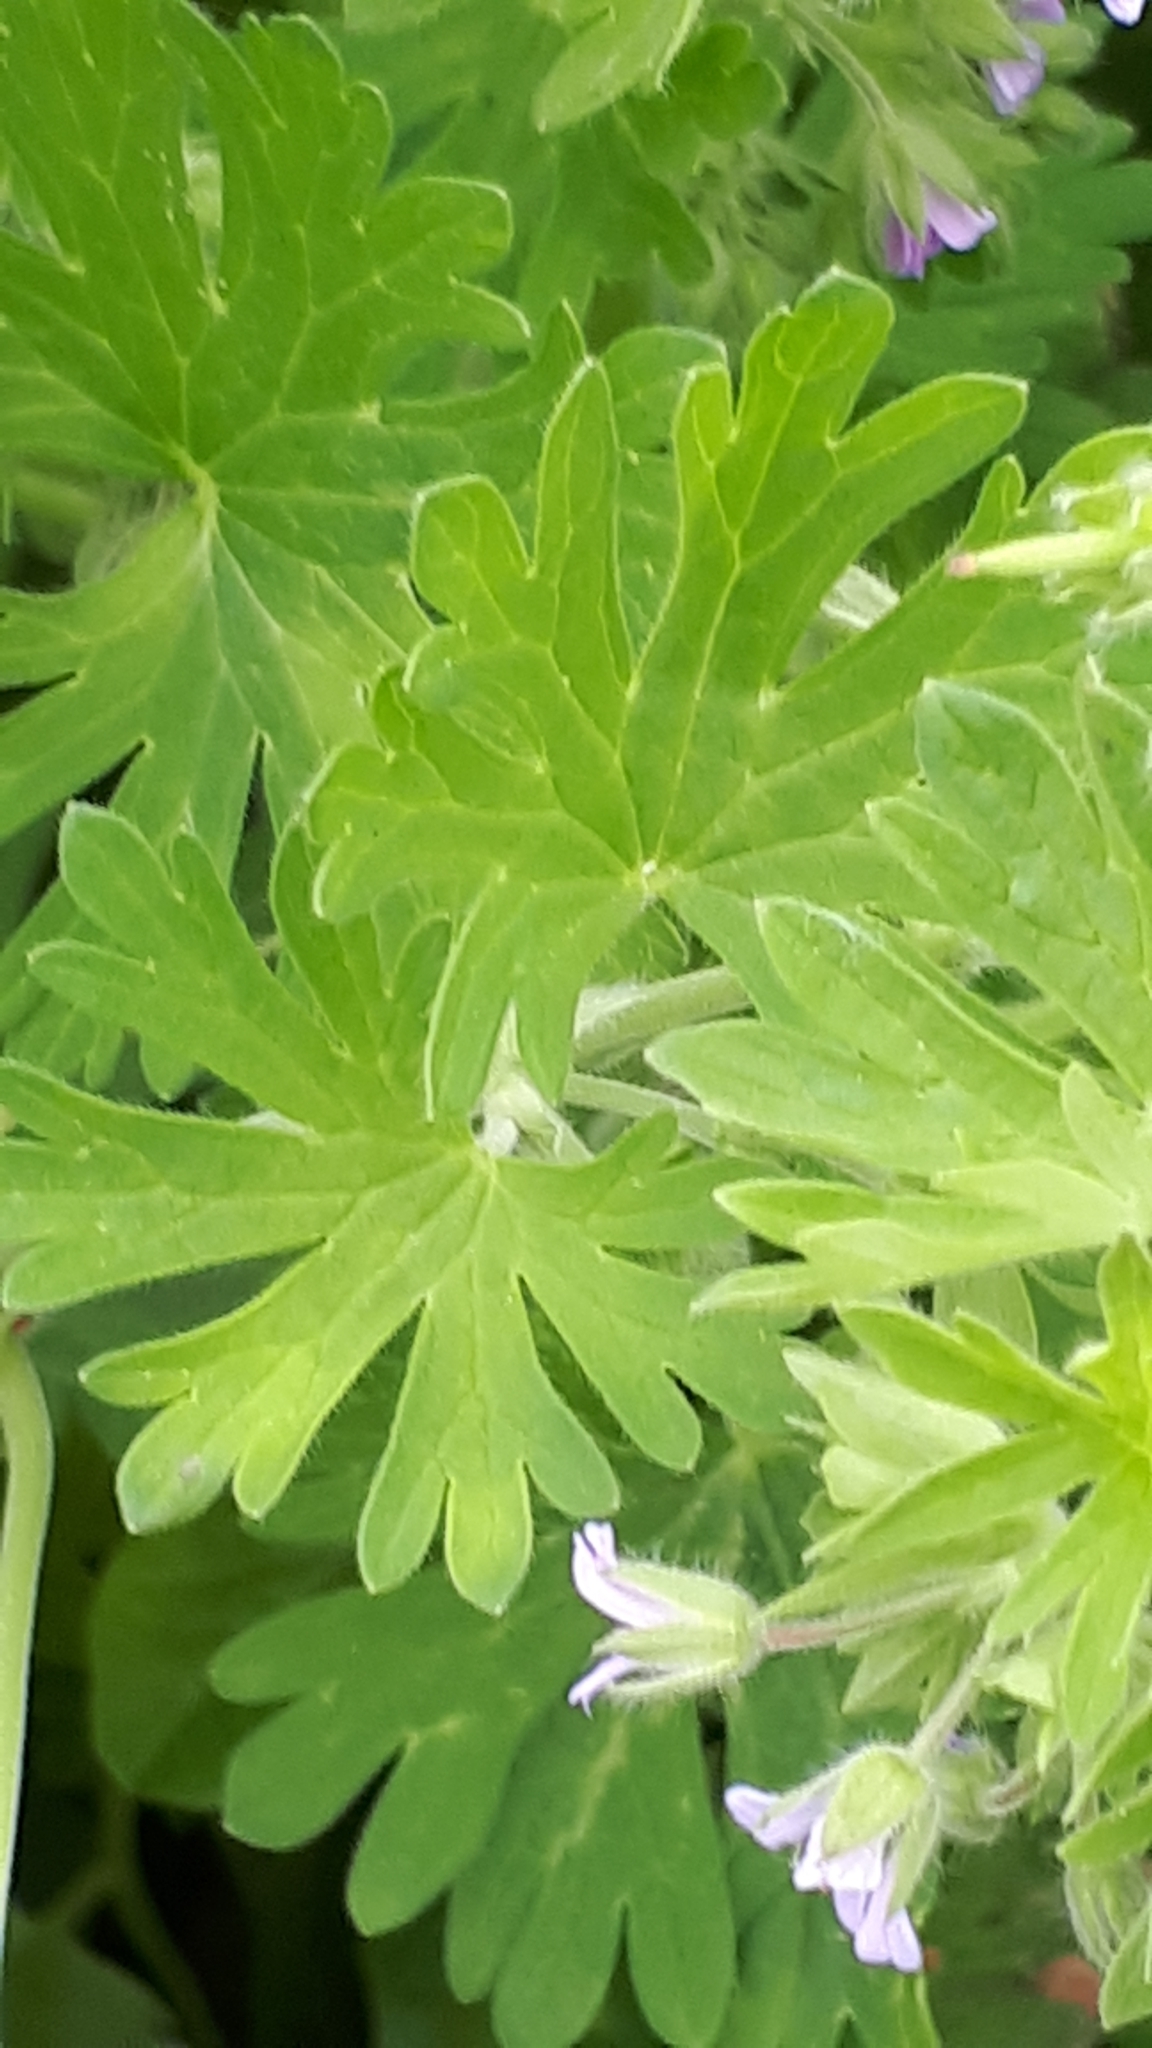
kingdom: Plantae
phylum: Tracheophyta
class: Magnoliopsida
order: Geraniales
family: Geraniaceae
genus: Geranium
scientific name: Geranium pusillum
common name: Small geranium
